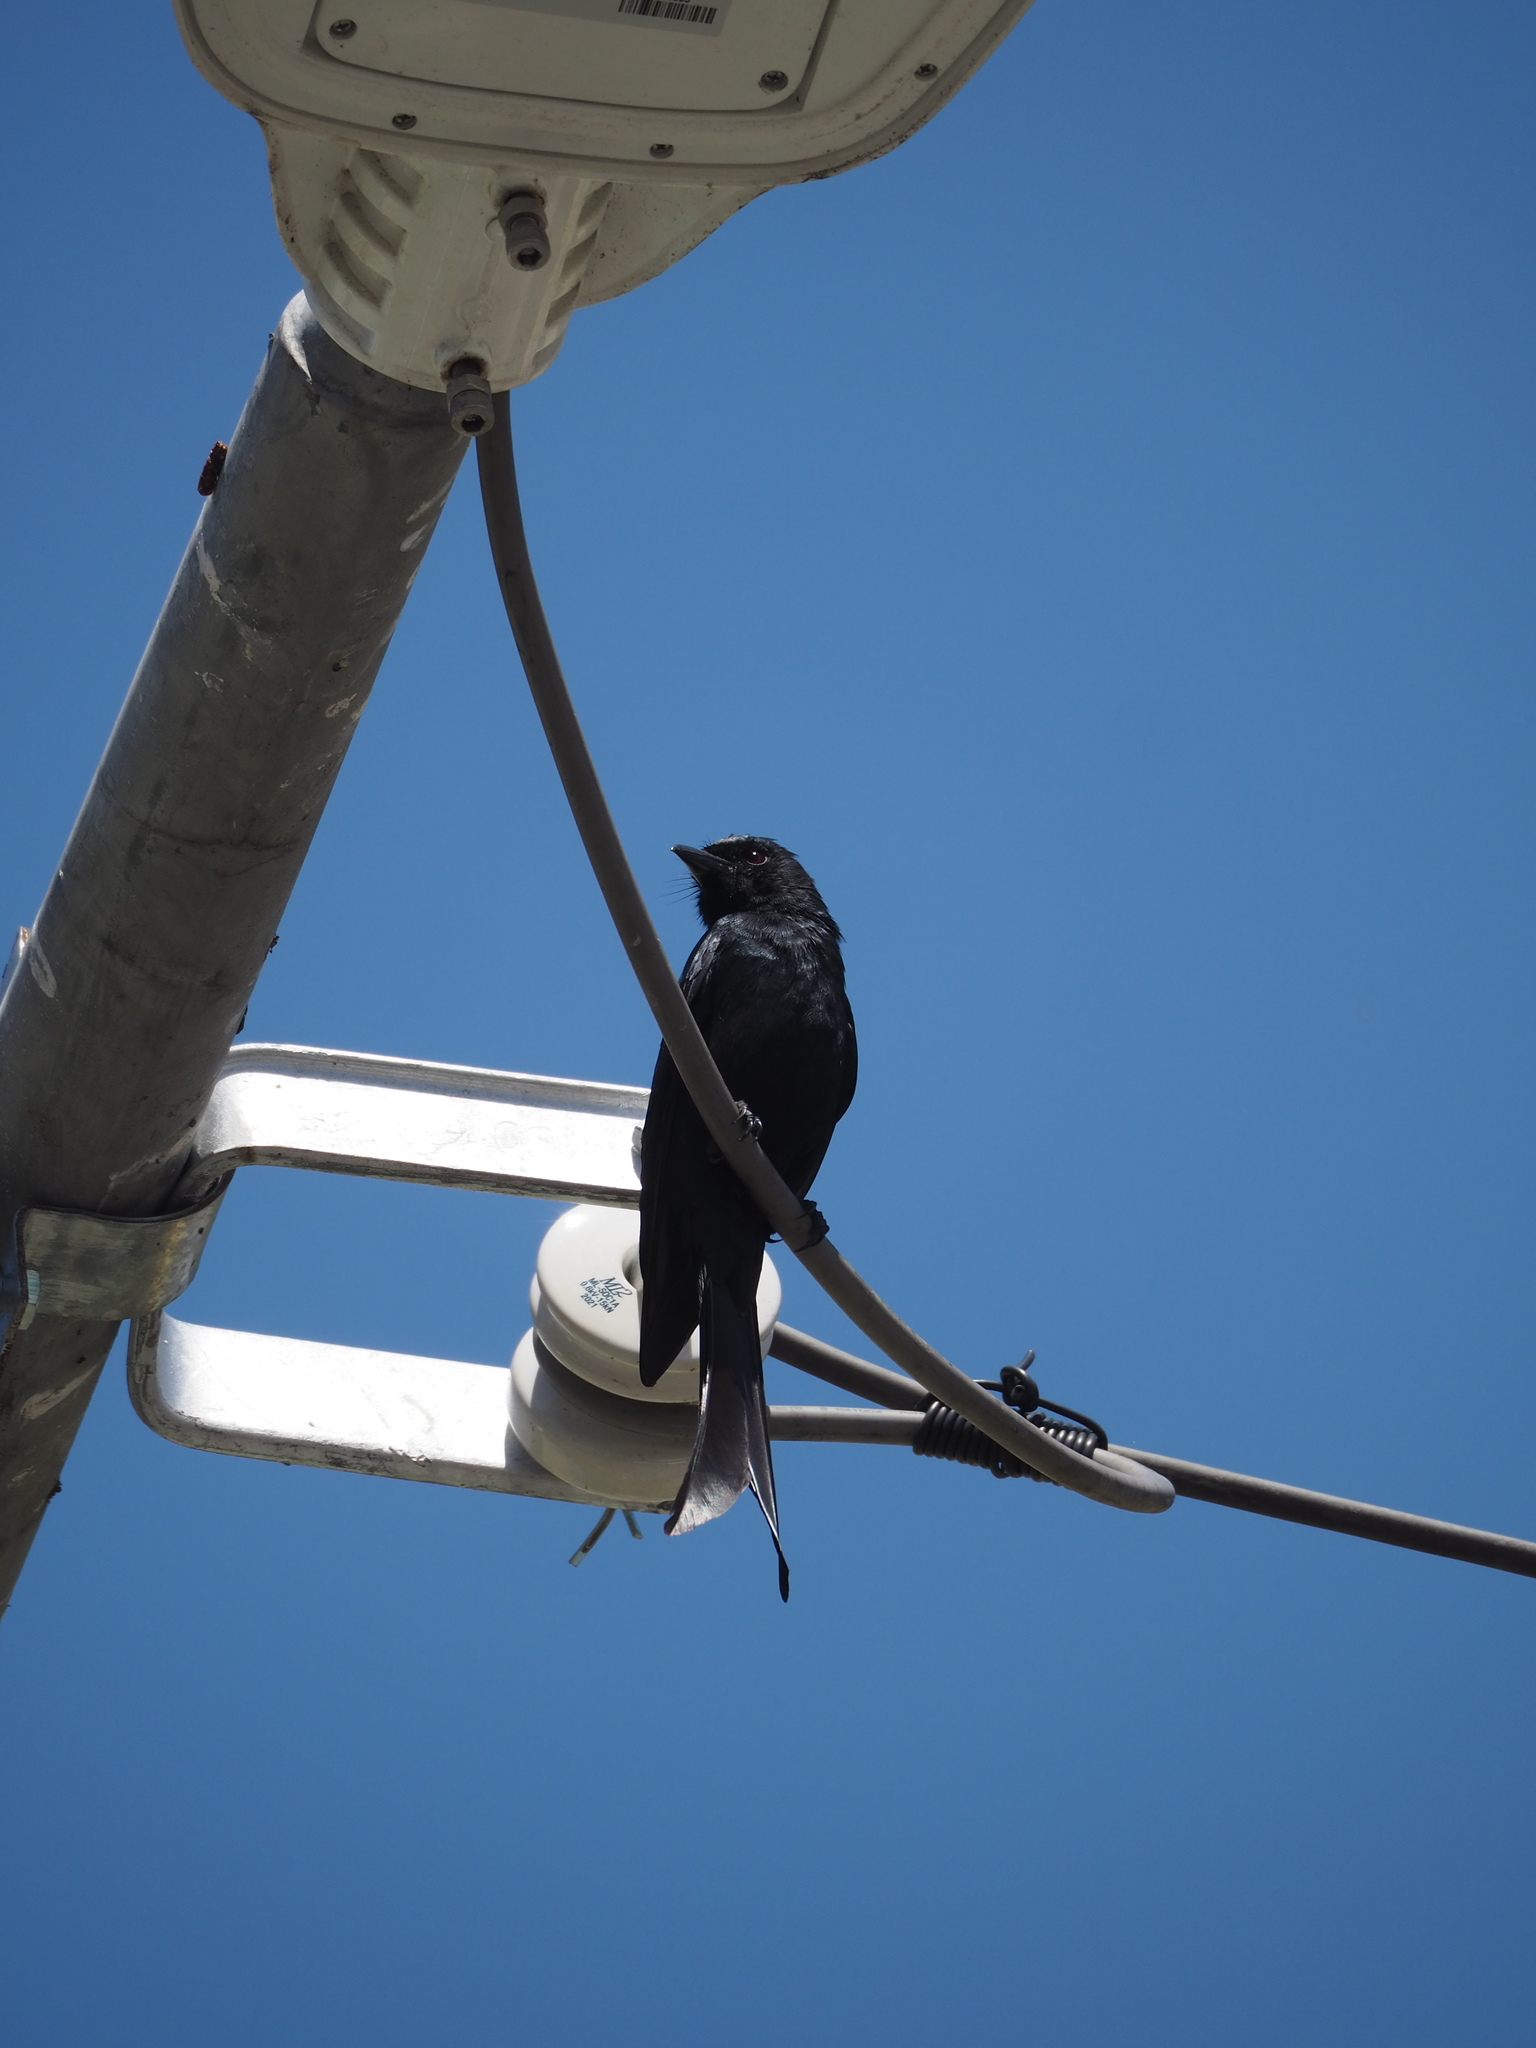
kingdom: Animalia
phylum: Chordata
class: Aves
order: Passeriformes
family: Dicruridae
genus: Dicrurus
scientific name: Dicrurus macrocercus
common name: Black drongo
